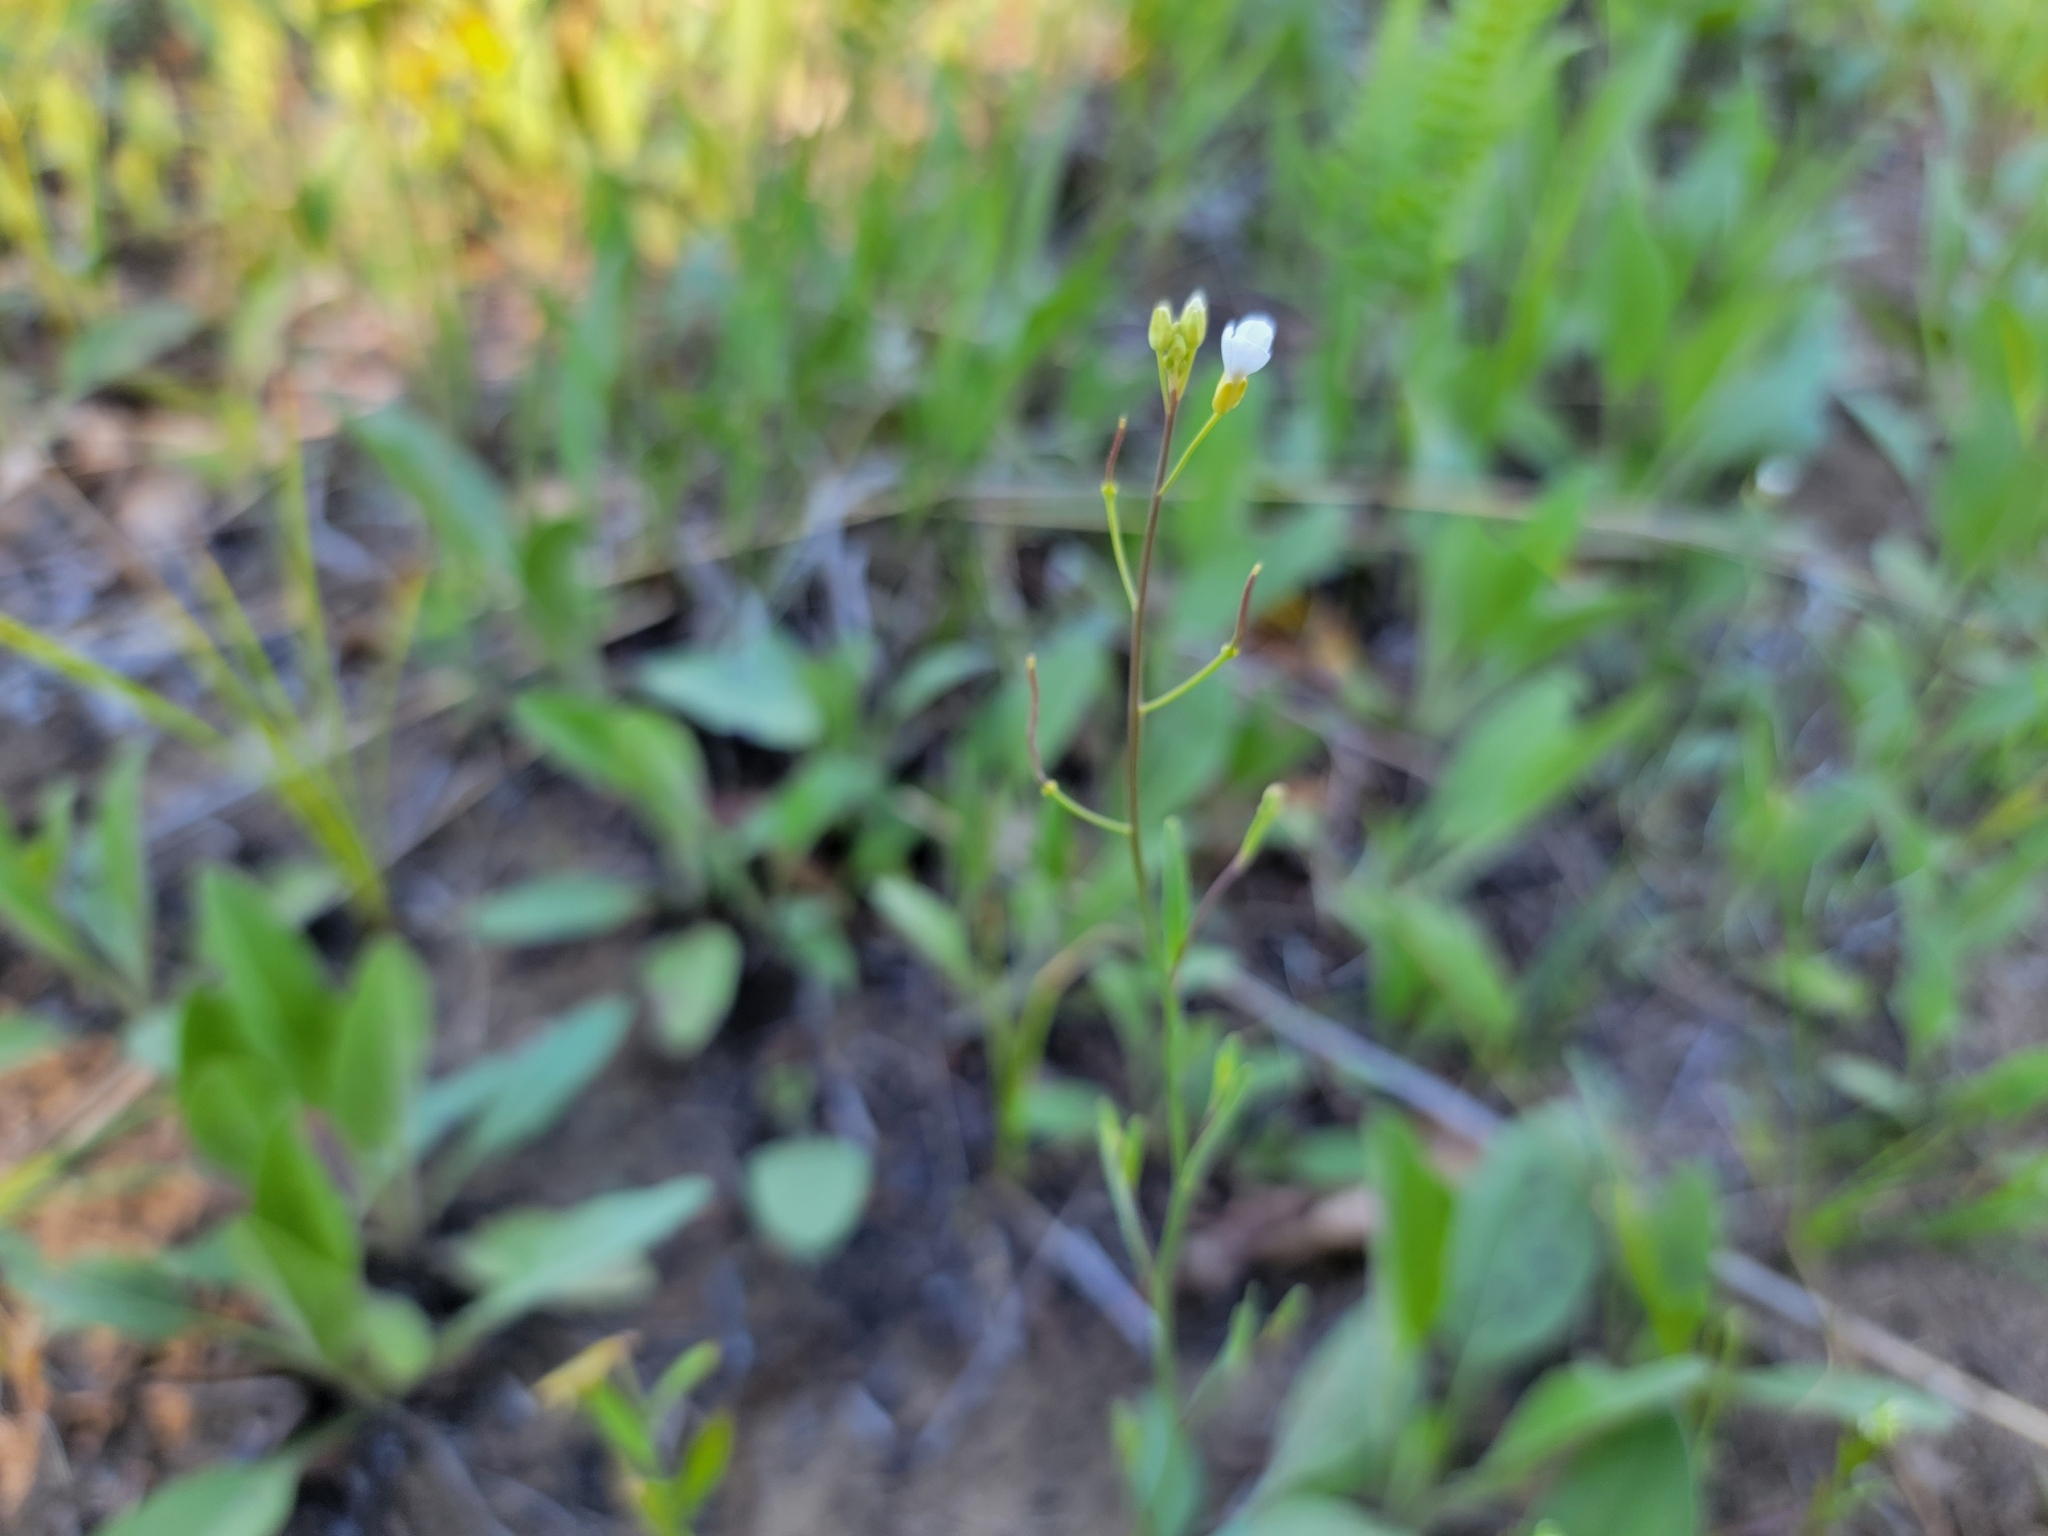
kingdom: Plantae
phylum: Tracheophyta
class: Magnoliopsida
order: Brassicales
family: Brassicaceae
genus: Arabidopsis
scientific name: Arabidopsis lyrata
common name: Lyrate rockcress
